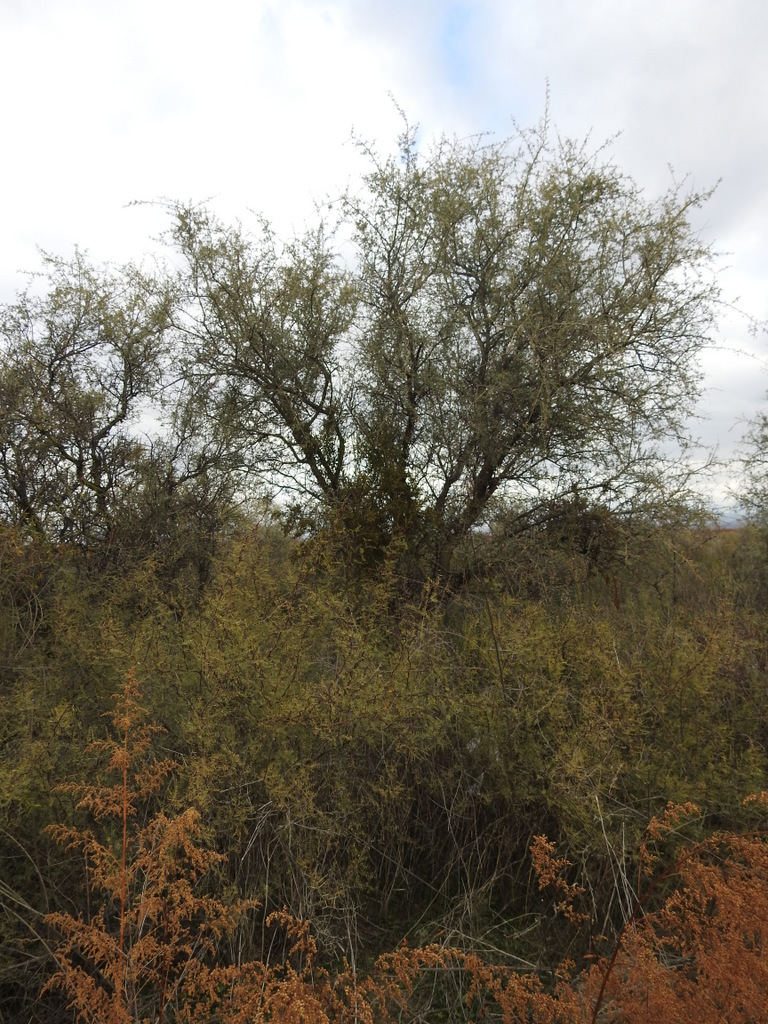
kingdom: Plantae
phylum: Tracheophyta
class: Magnoliopsida
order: Fabales
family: Fabaceae
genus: Geoffroea
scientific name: Geoffroea decorticans
